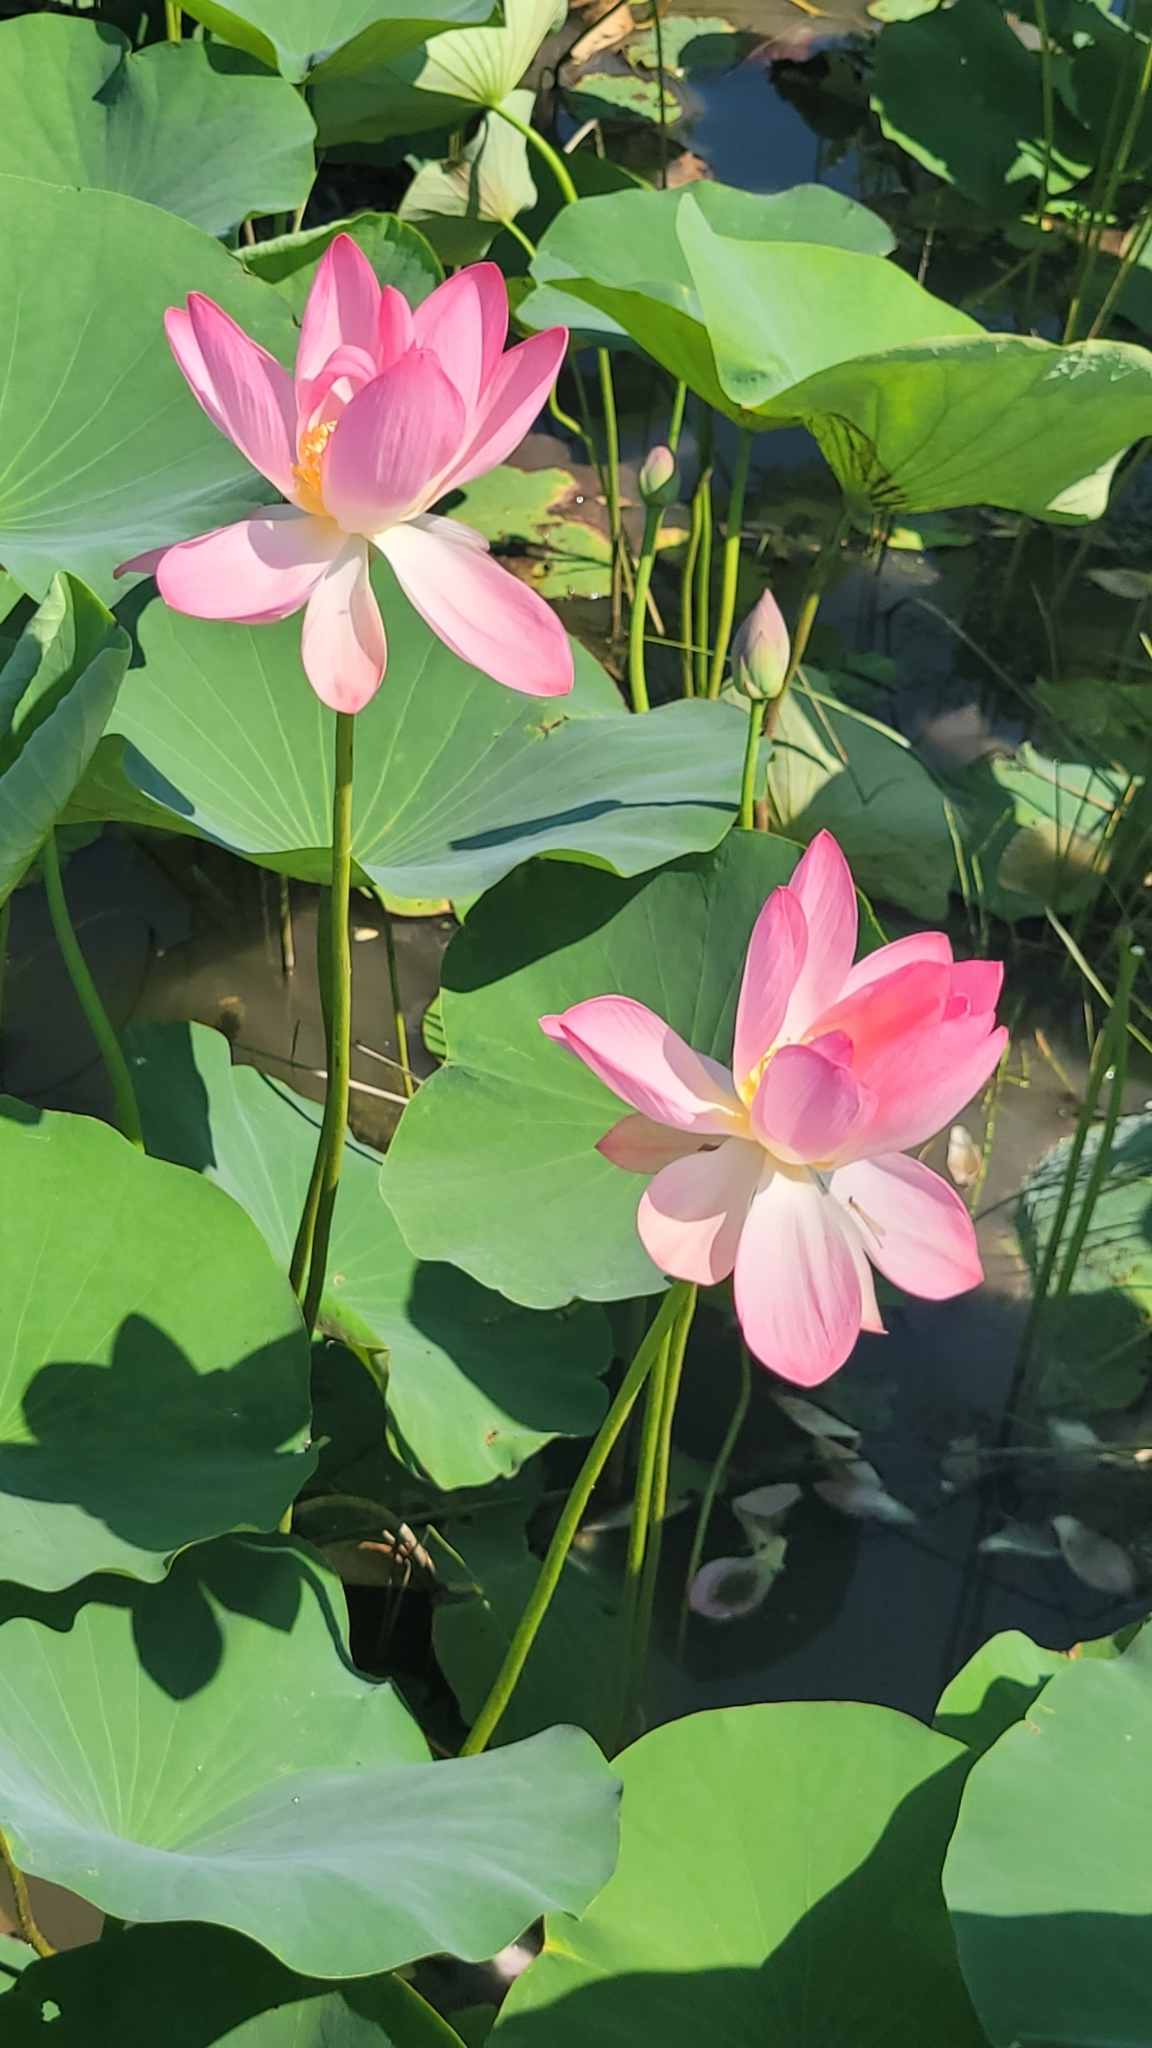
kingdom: Plantae
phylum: Tracheophyta
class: Magnoliopsida
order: Proteales
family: Nelumbonaceae
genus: Nelumbo
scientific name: Nelumbo nucifera
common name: Sacred lotus
